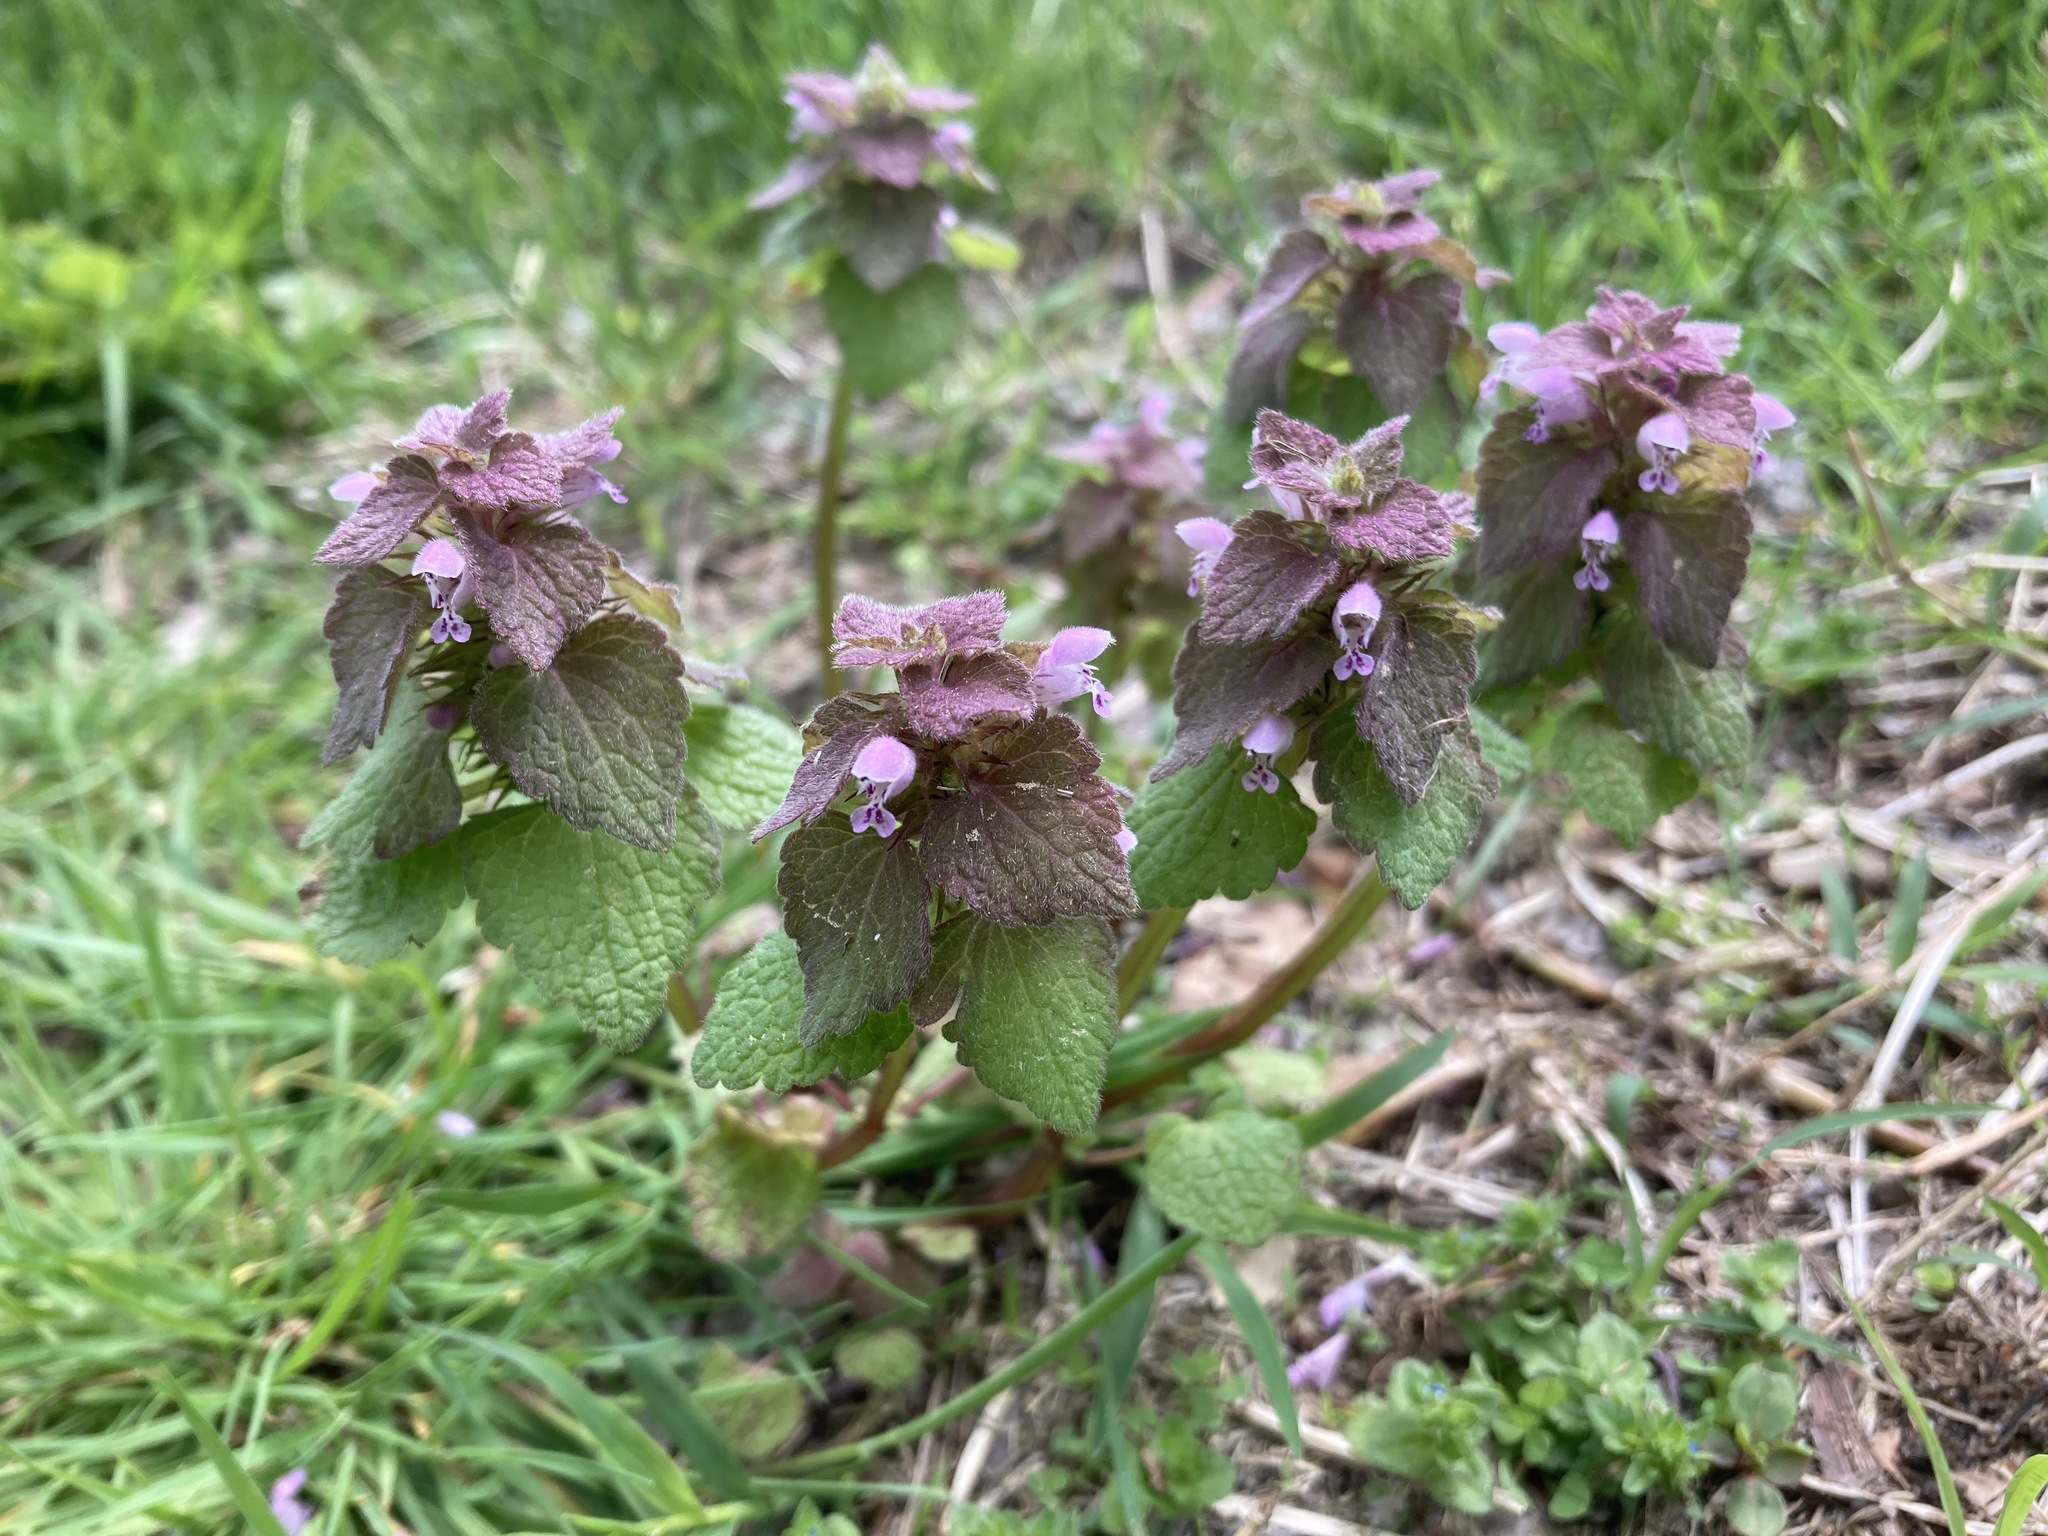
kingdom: Plantae
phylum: Tracheophyta
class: Magnoliopsida
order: Lamiales
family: Lamiaceae
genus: Lamium
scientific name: Lamium purpureum
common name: Red dead-nettle
